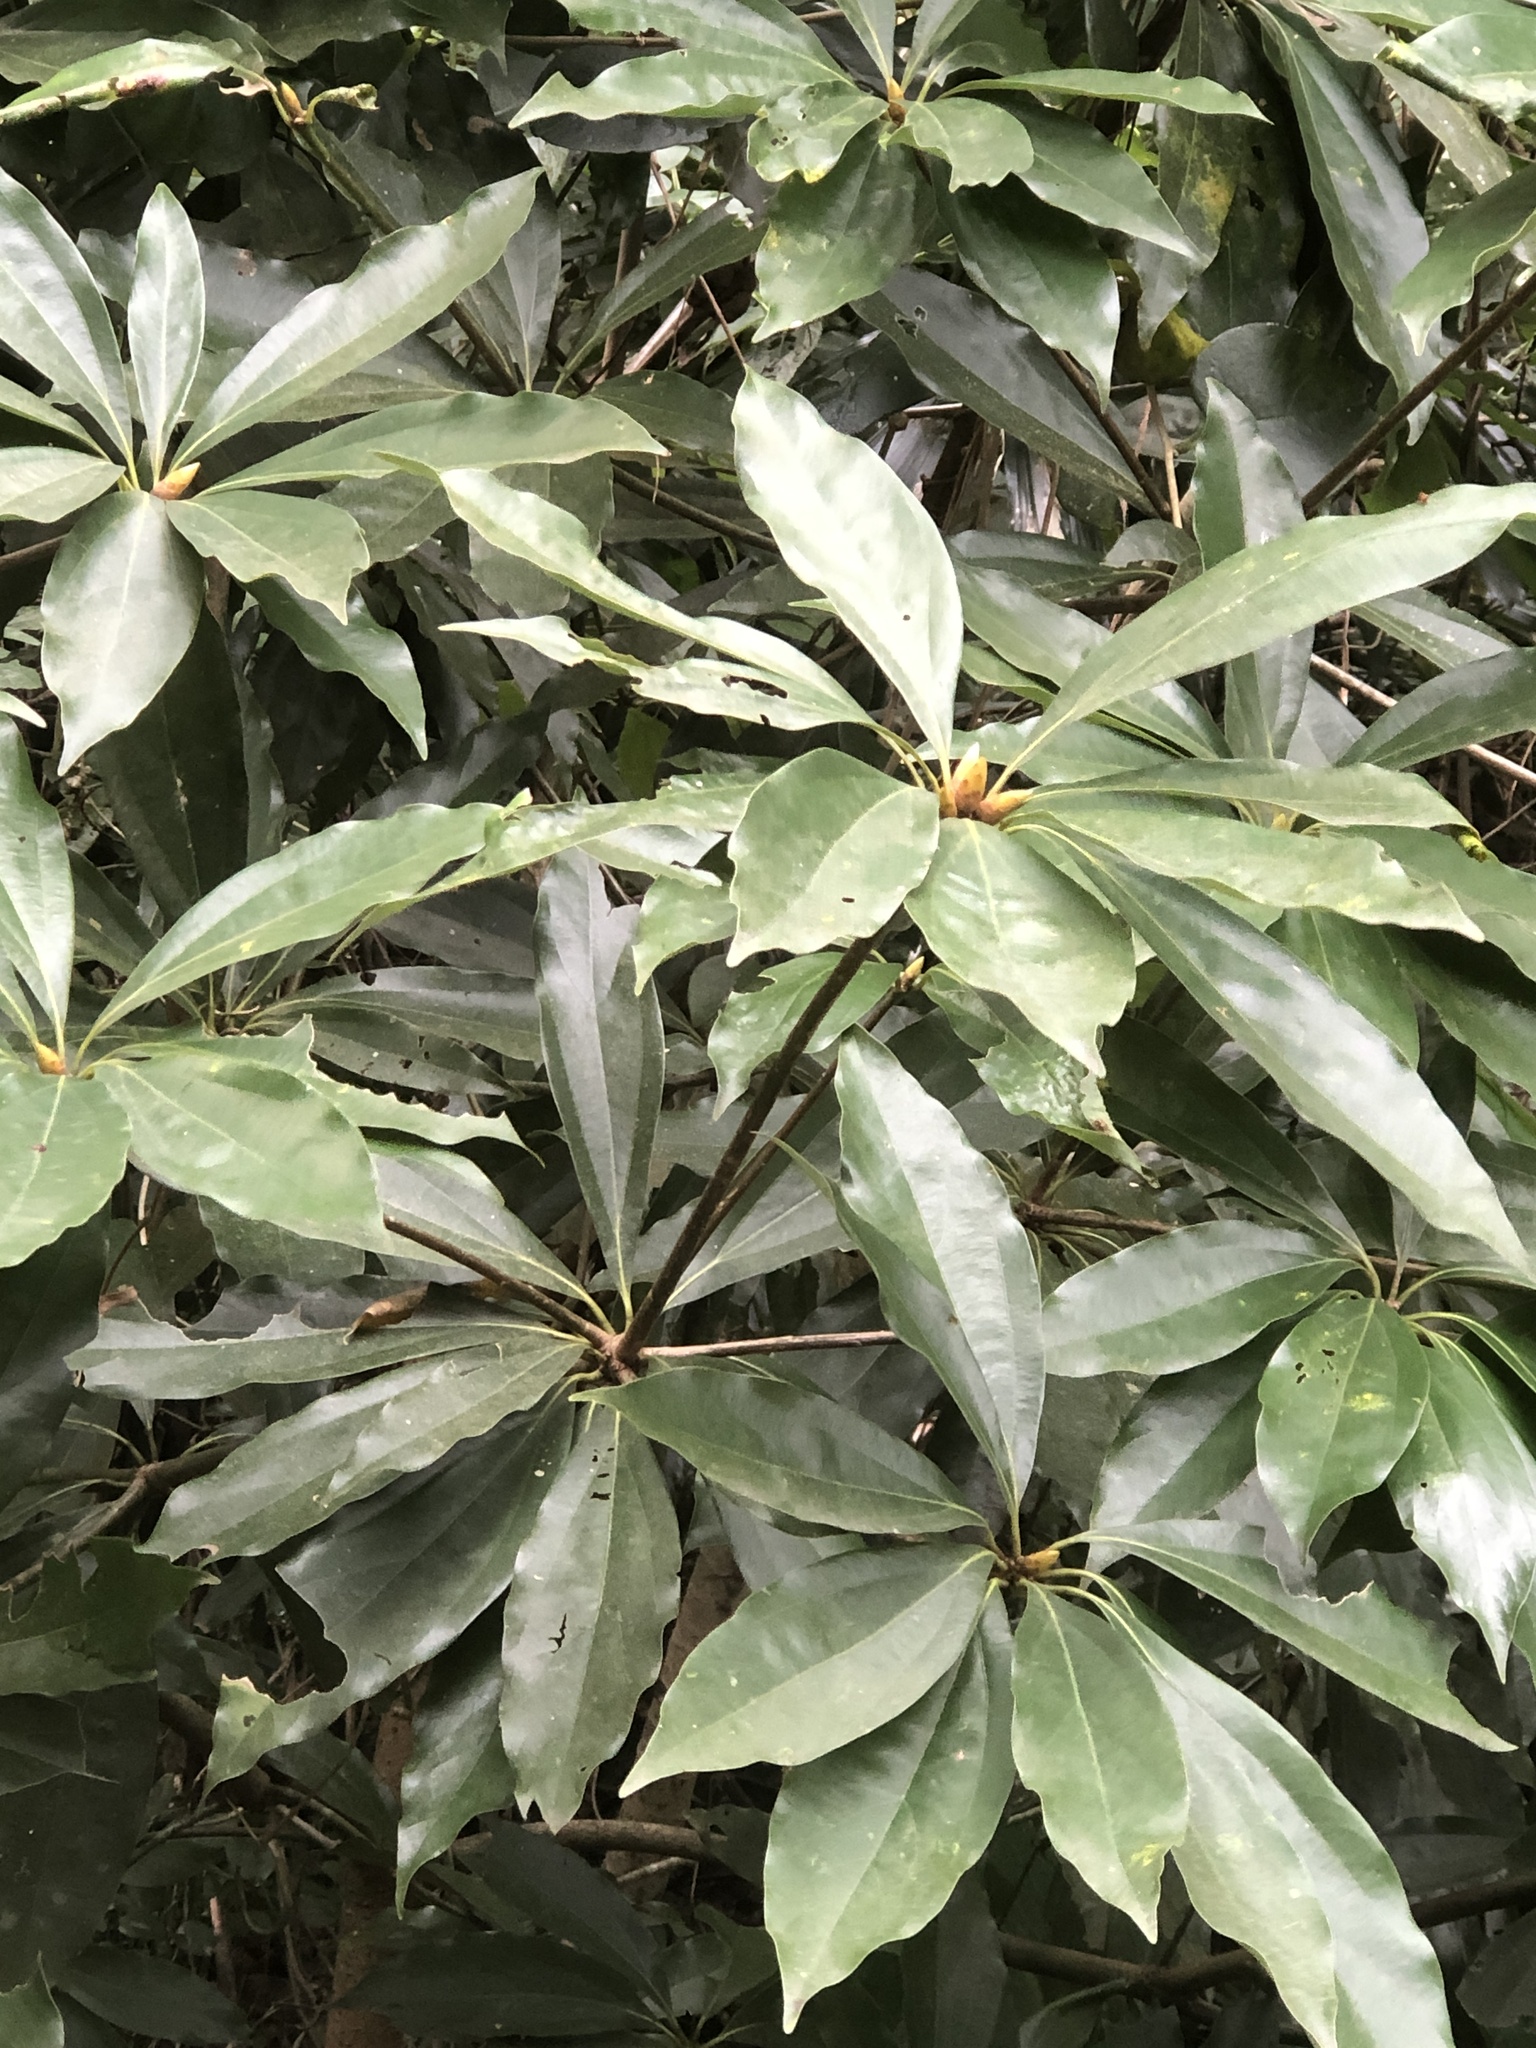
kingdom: Plantae
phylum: Tracheophyta
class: Magnoliopsida
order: Laurales
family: Lauraceae
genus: Neolitsea
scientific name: Neolitsea konishii
